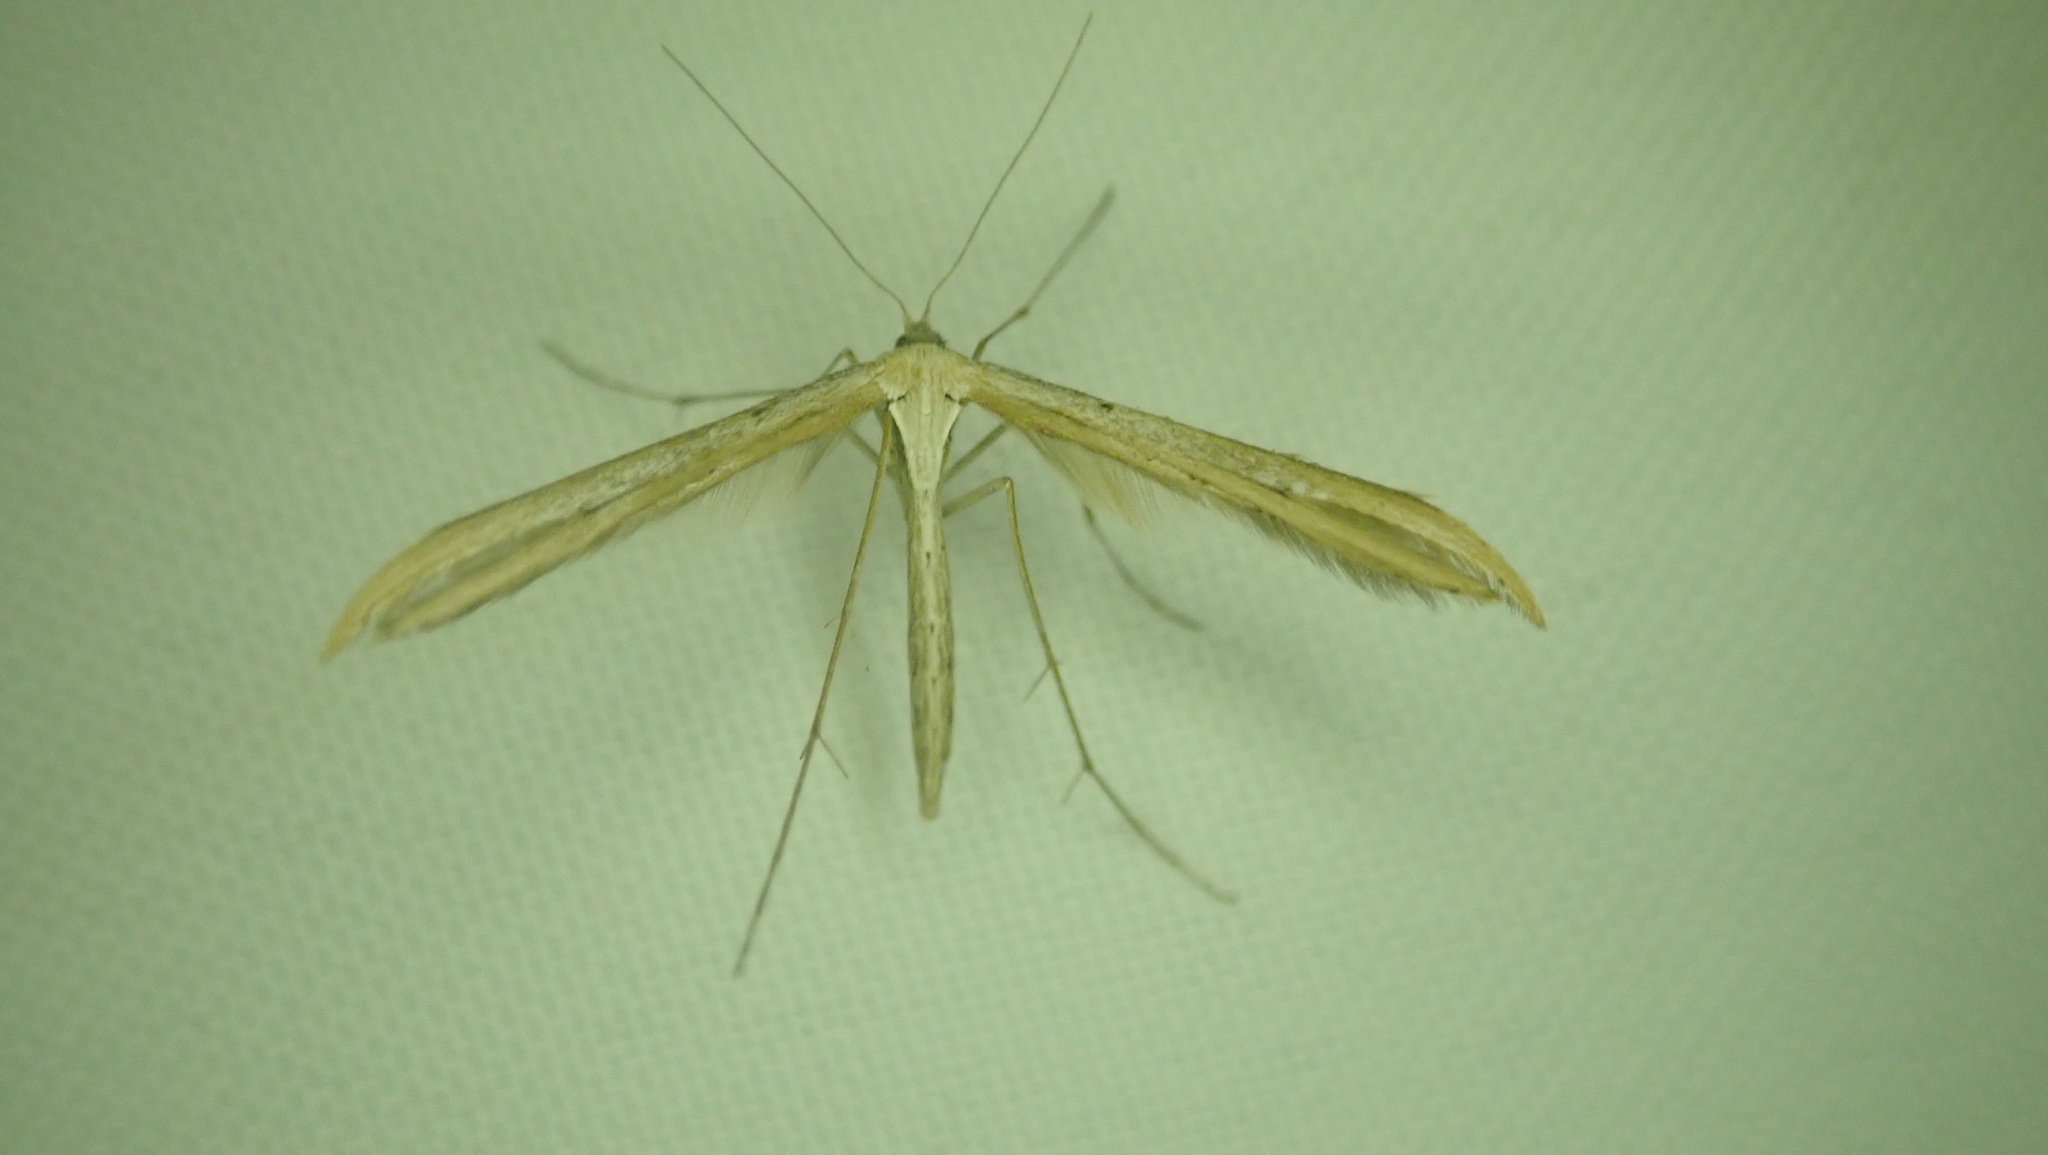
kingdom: Animalia
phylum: Arthropoda
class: Insecta
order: Lepidoptera
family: Pterophoridae
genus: Emmelina
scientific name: Emmelina monodactyla
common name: Common plume
